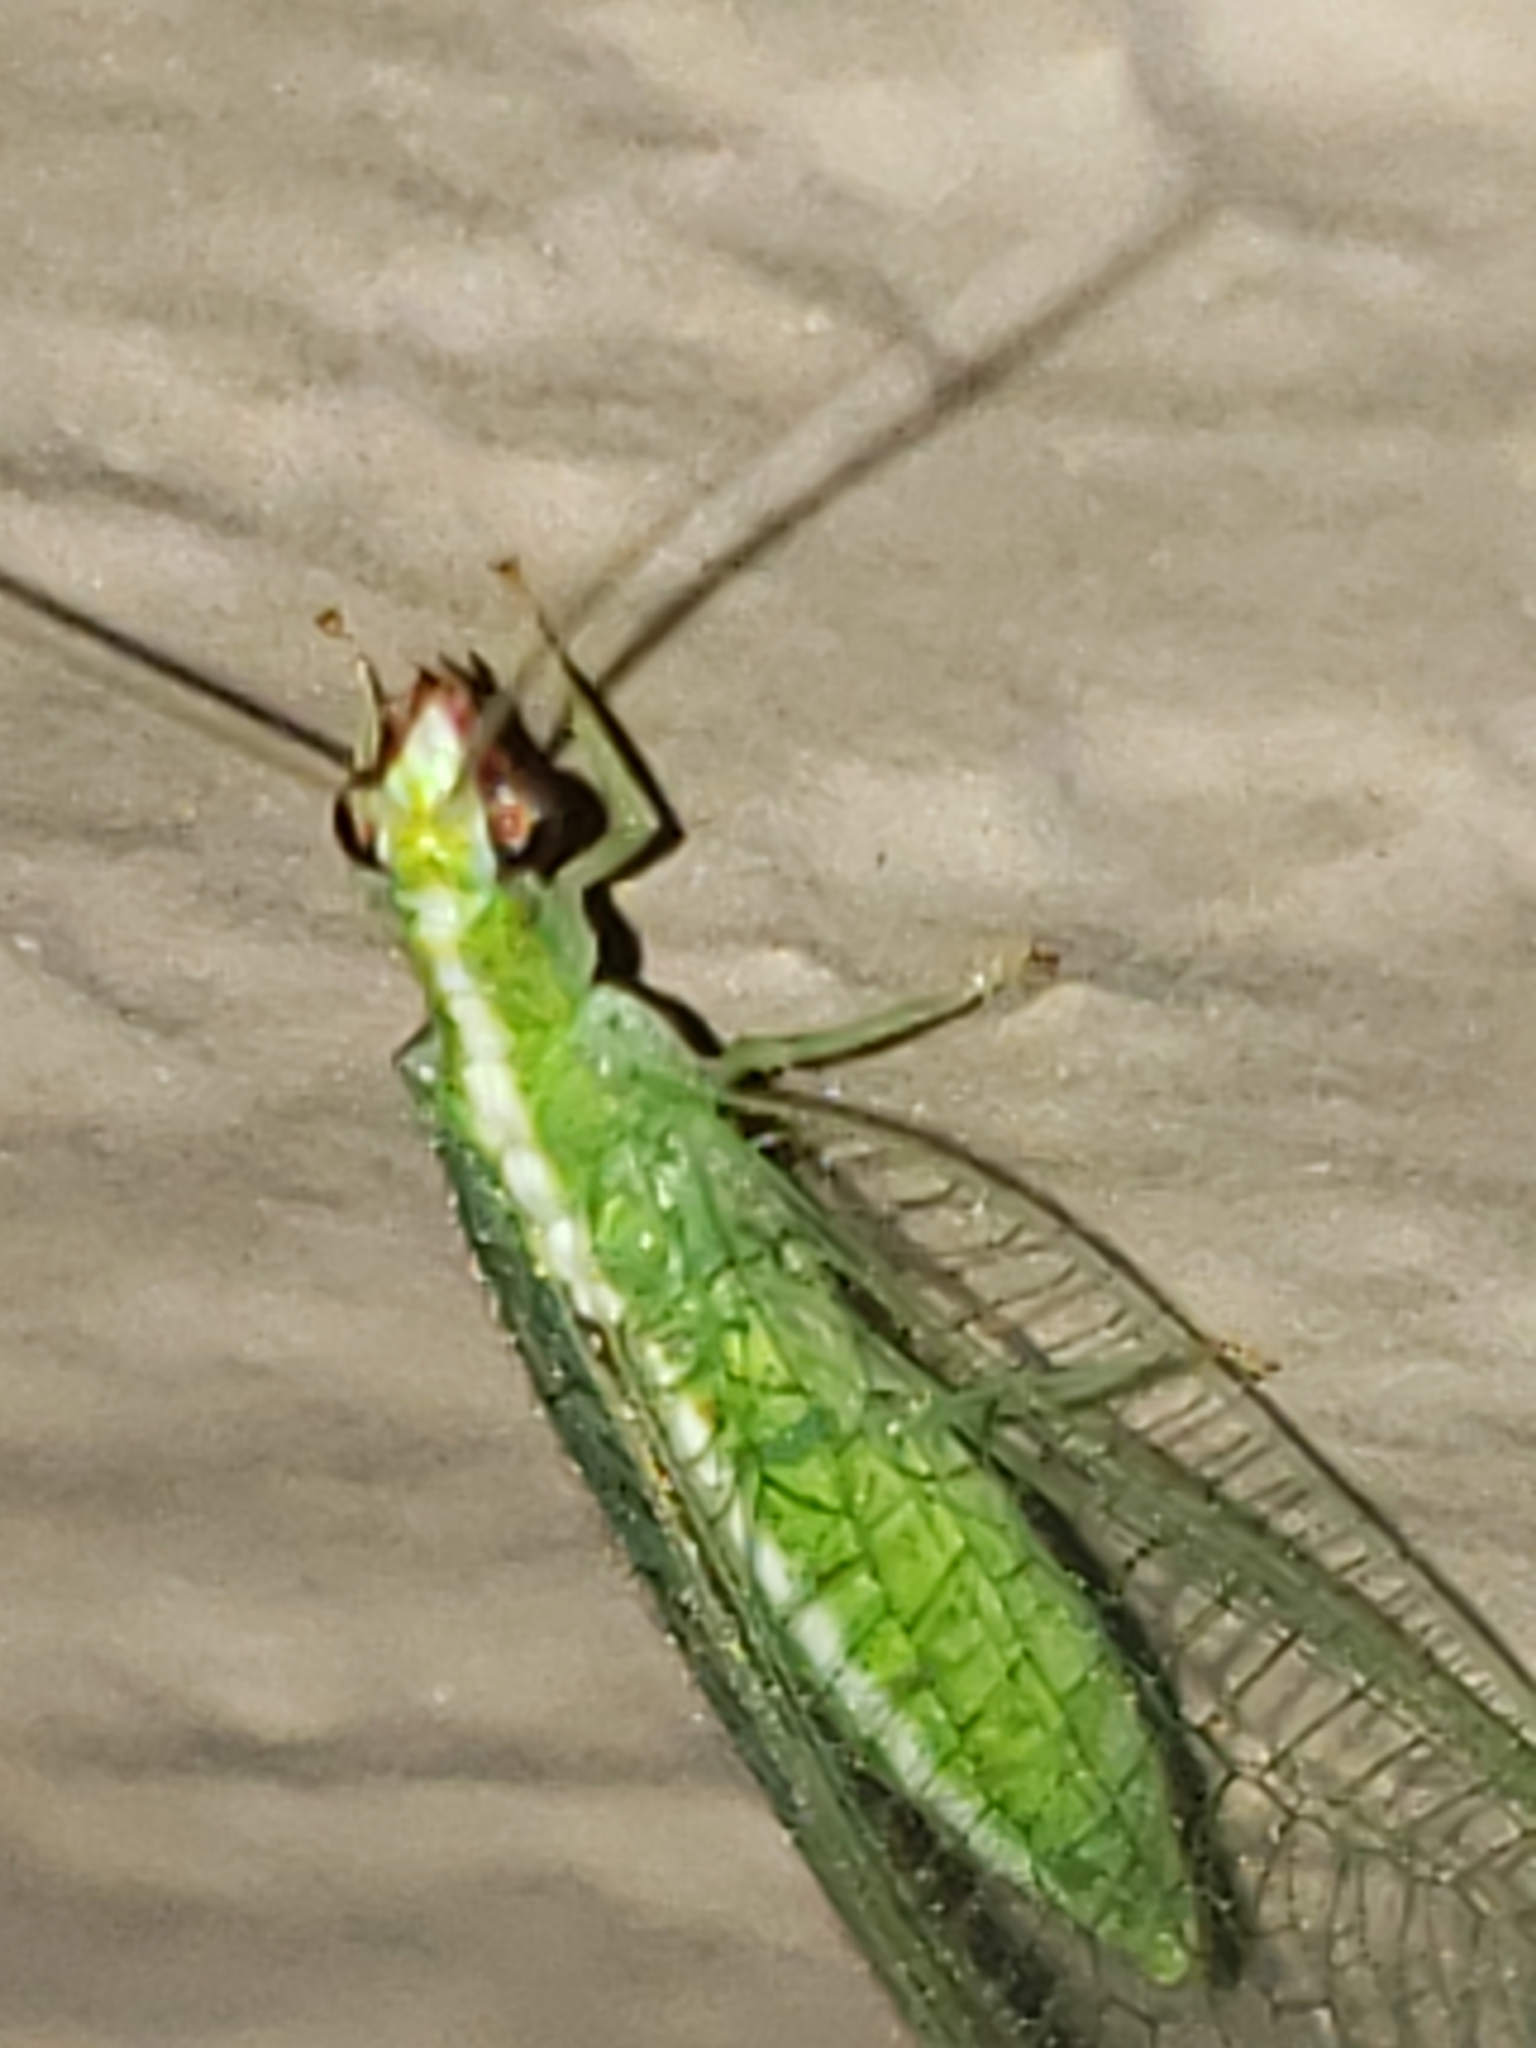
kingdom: Animalia
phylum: Arthropoda
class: Insecta
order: Neuroptera
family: Chrysopidae
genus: Chrysoperla
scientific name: Chrysoperla rufilabris
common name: Red-lipped green lacewing
